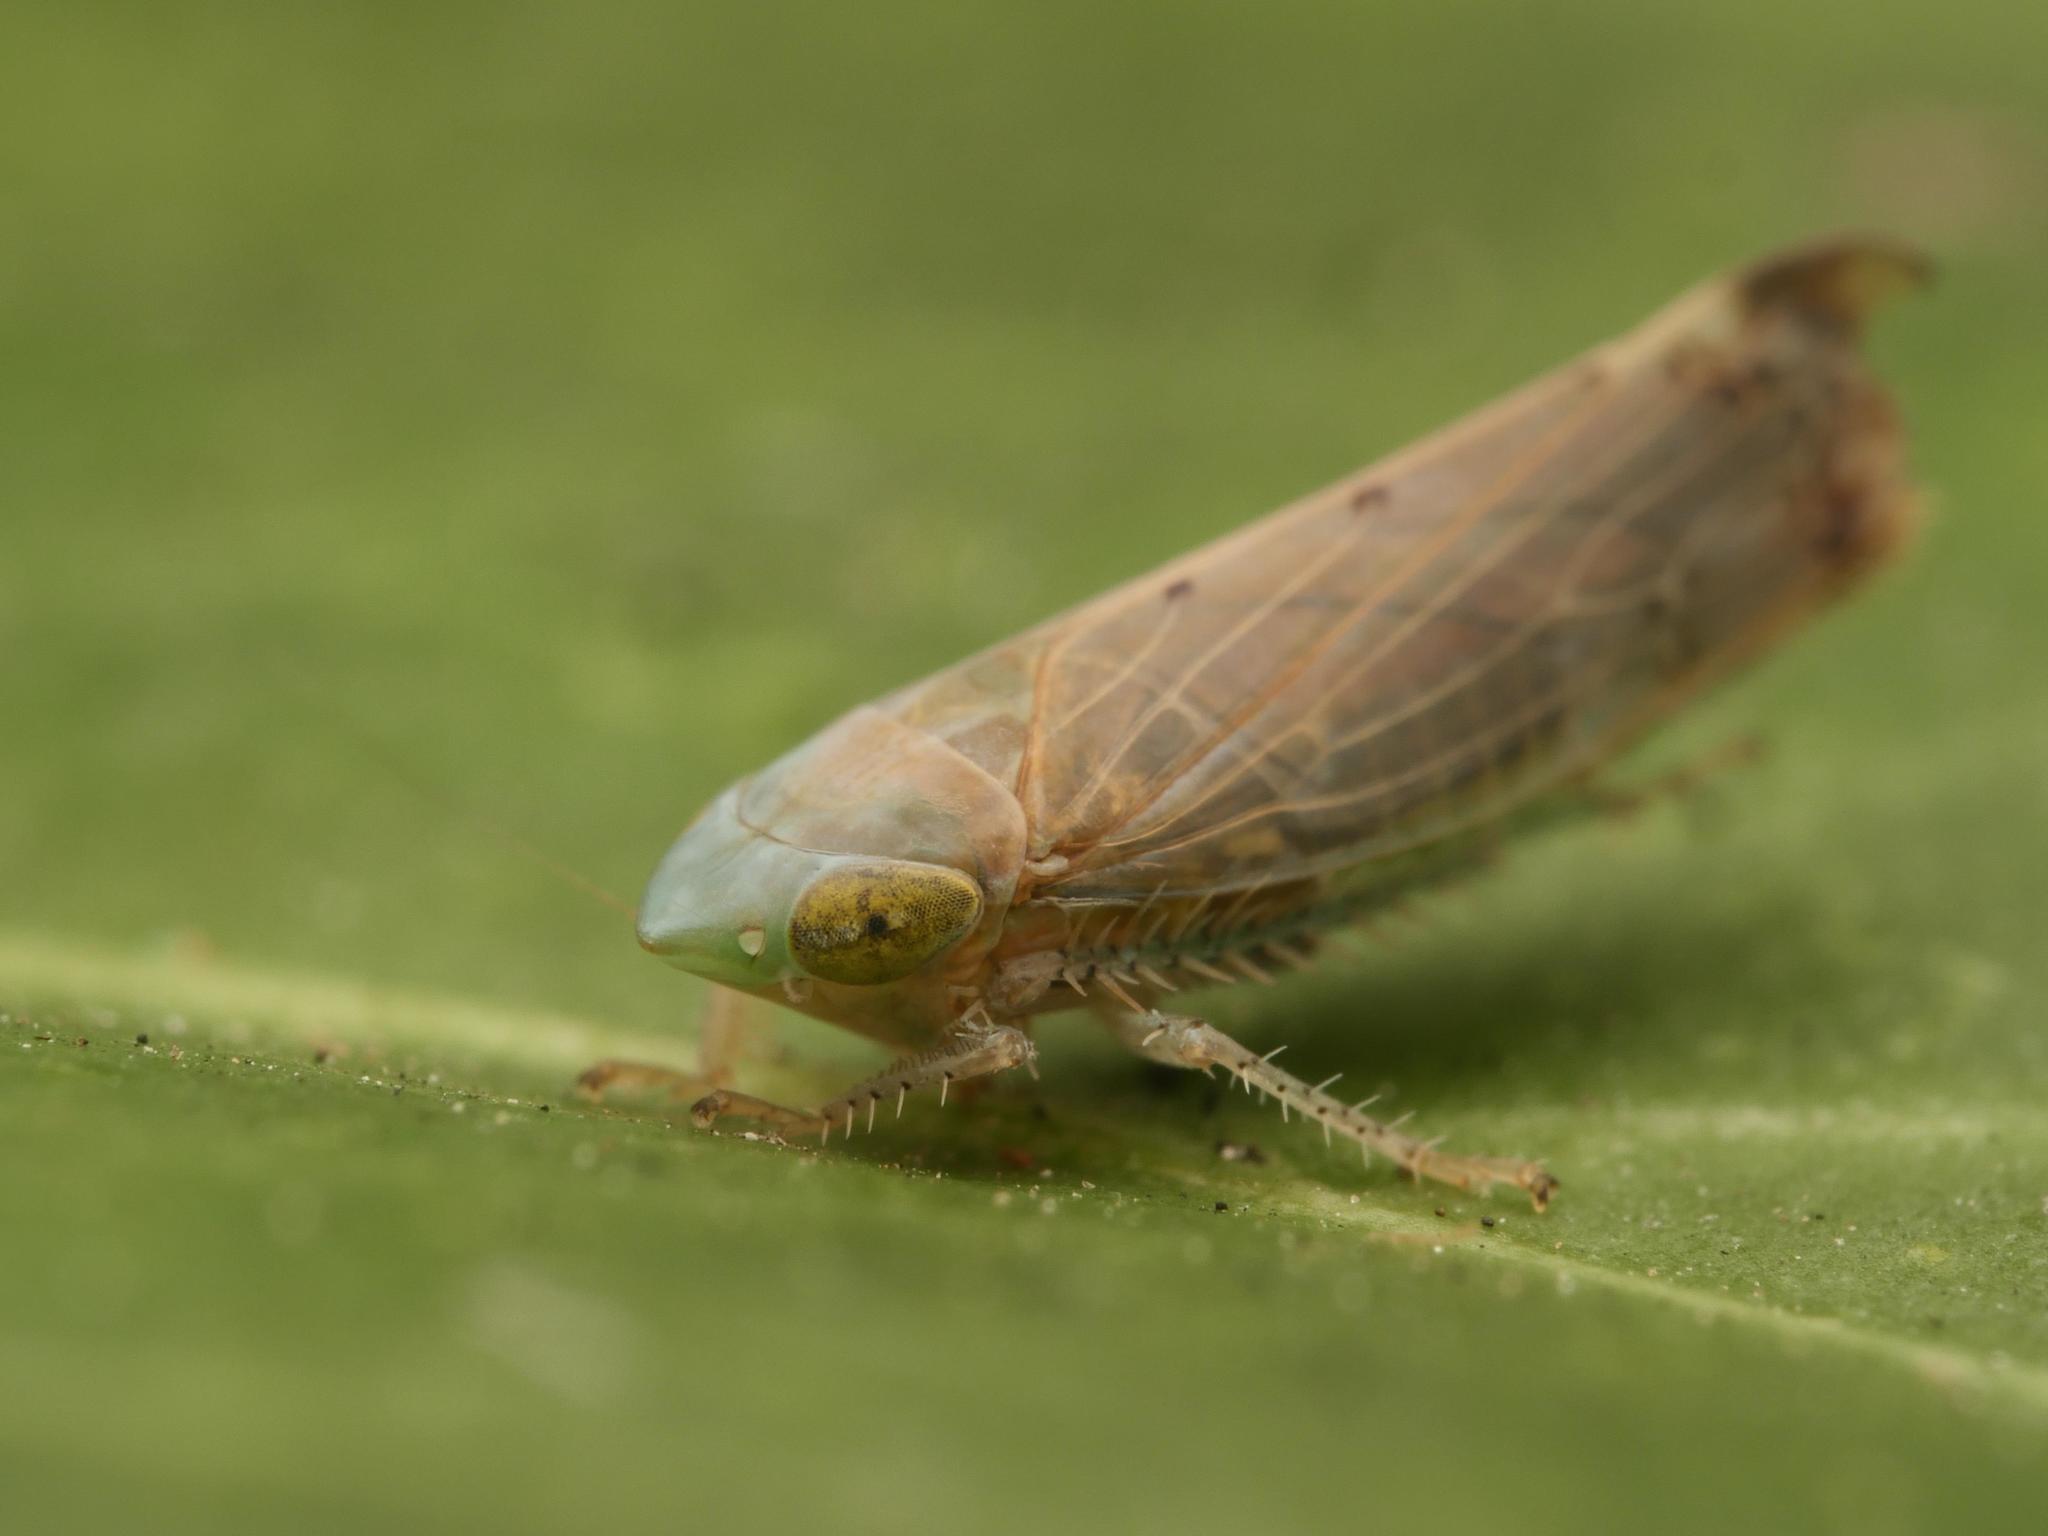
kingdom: Animalia
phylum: Arthropoda
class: Insecta
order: Hemiptera
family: Cicadellidae
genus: Synophropsis
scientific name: Synophropsis lauri
